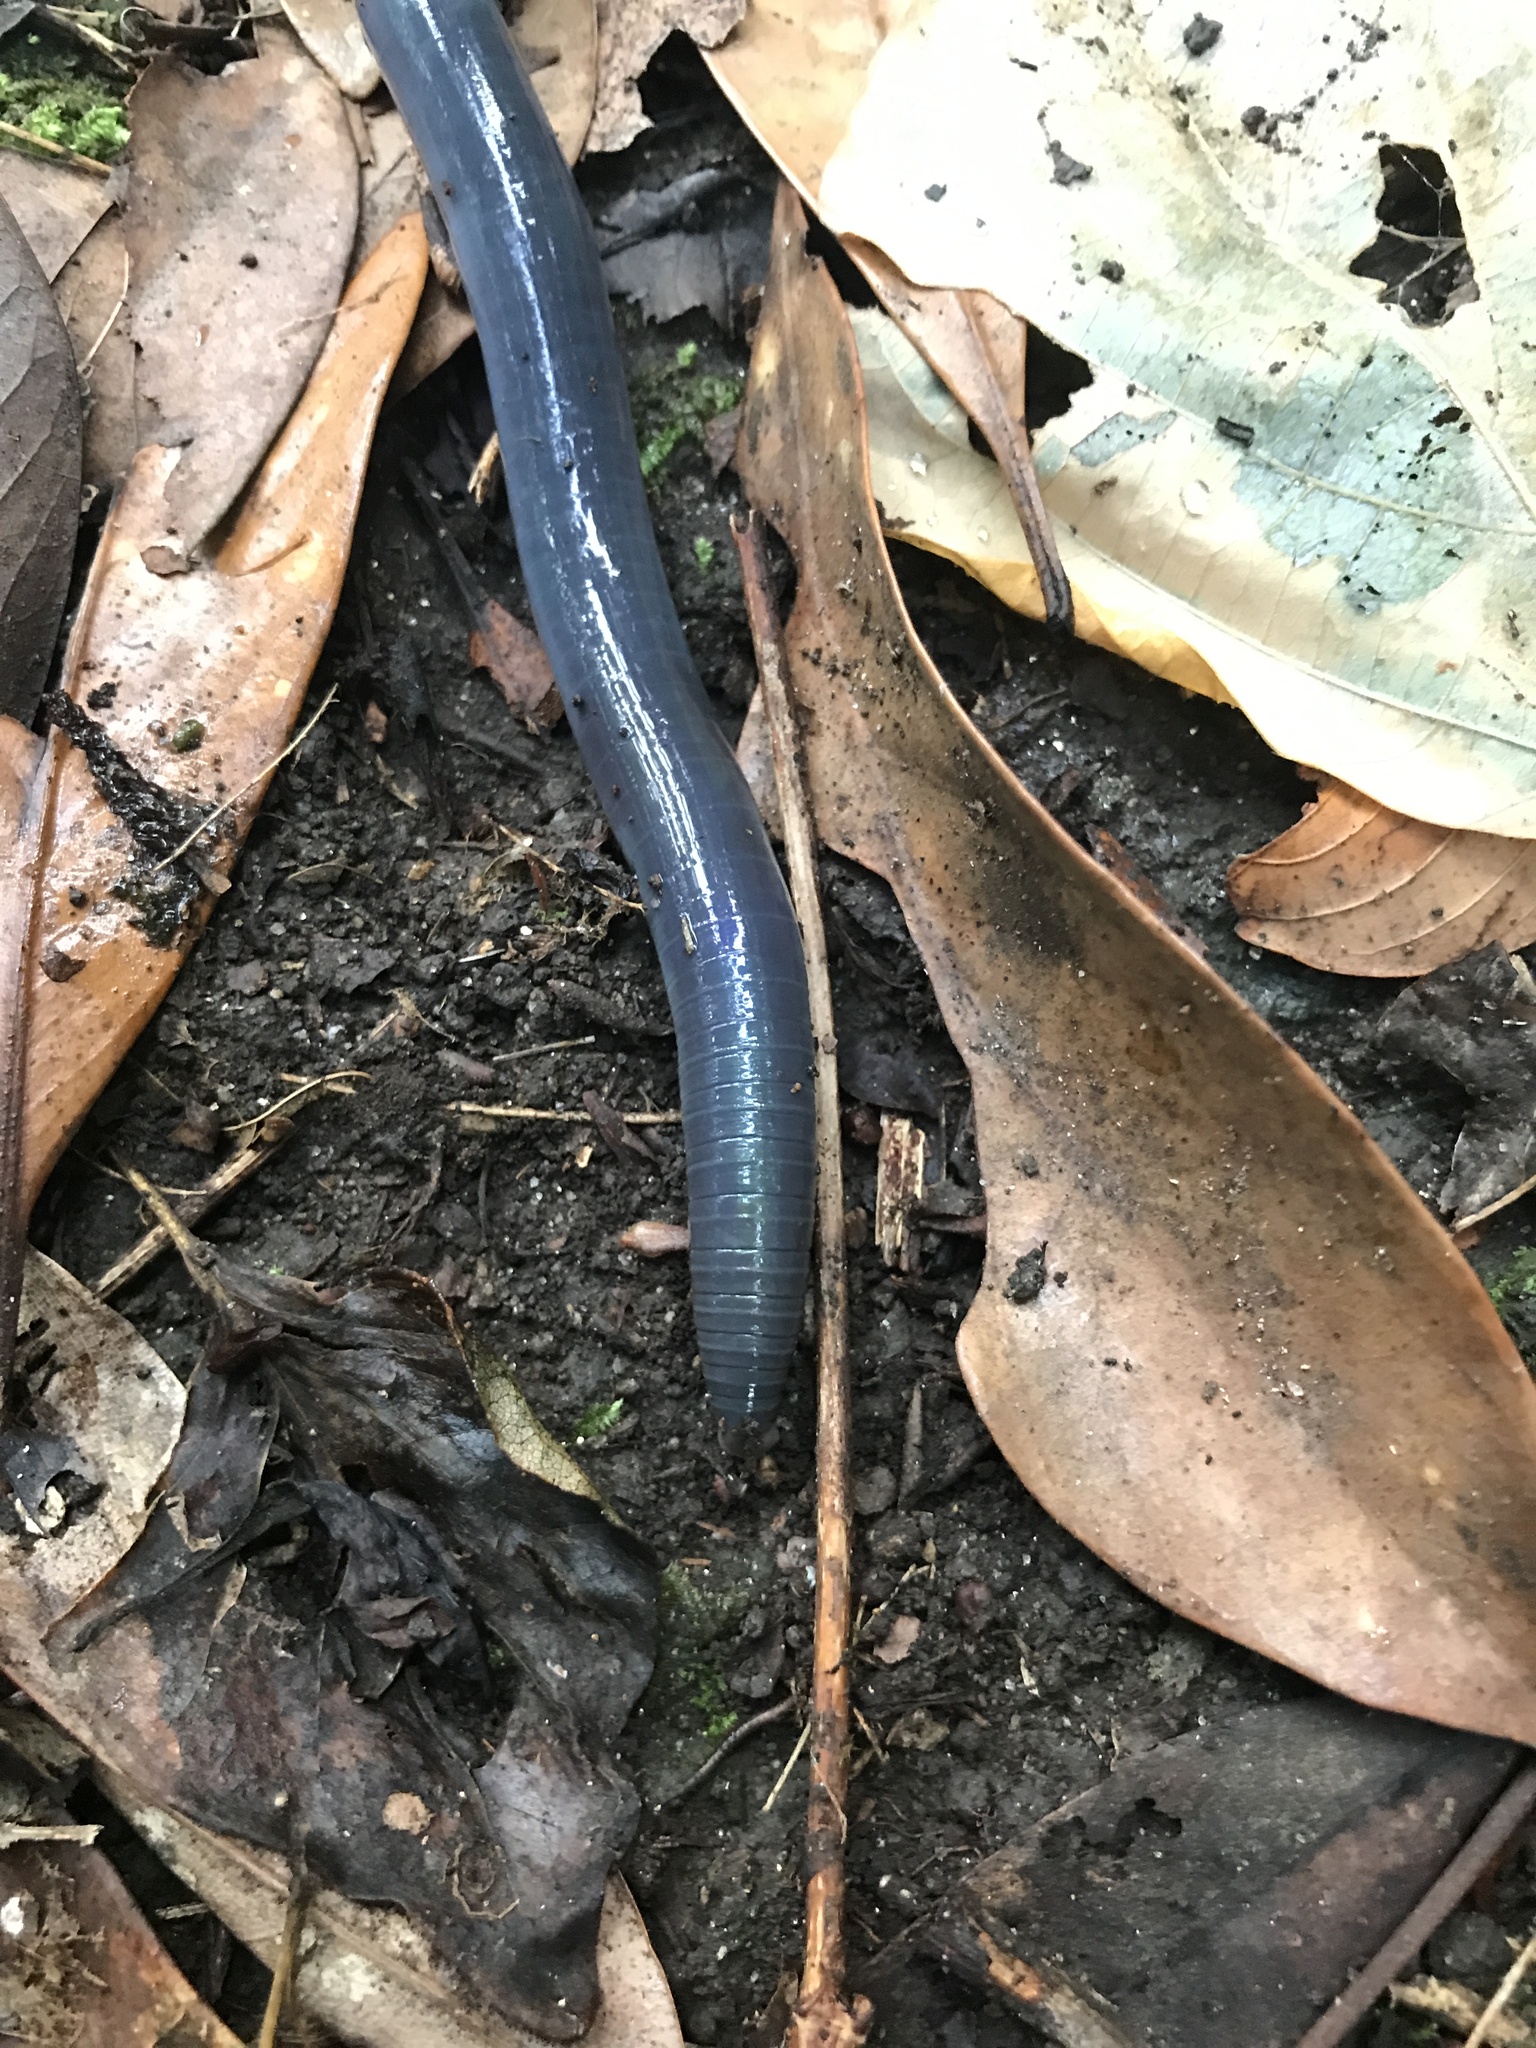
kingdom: Animalia
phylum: Annelida
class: Clitellata
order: Crassiclitellata
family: Megascolecidae
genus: Pheretima
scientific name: Pheretima
